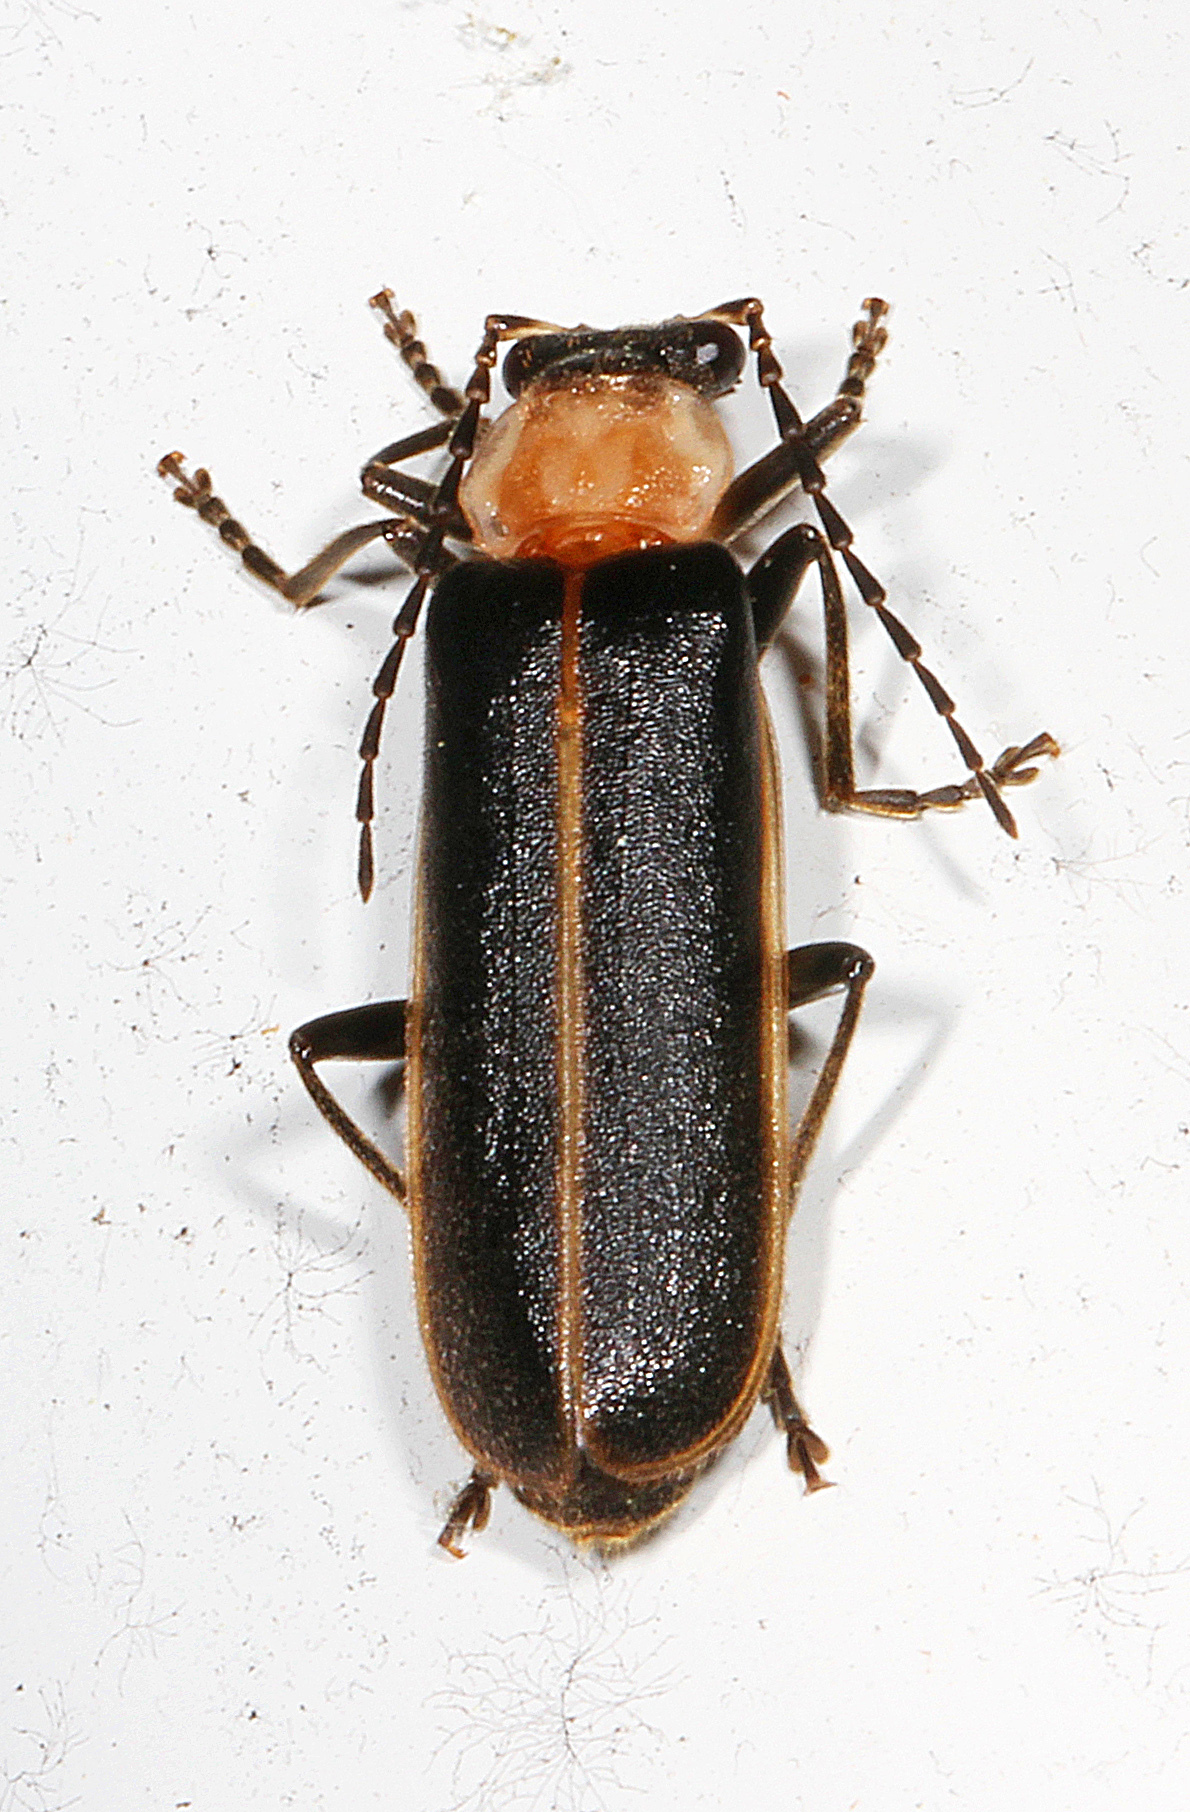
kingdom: Animalia
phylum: Arthropoda
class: Insecta
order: Coleoptera
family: Cantharidae
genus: Podabrus
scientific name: Podabrus flavicollis
